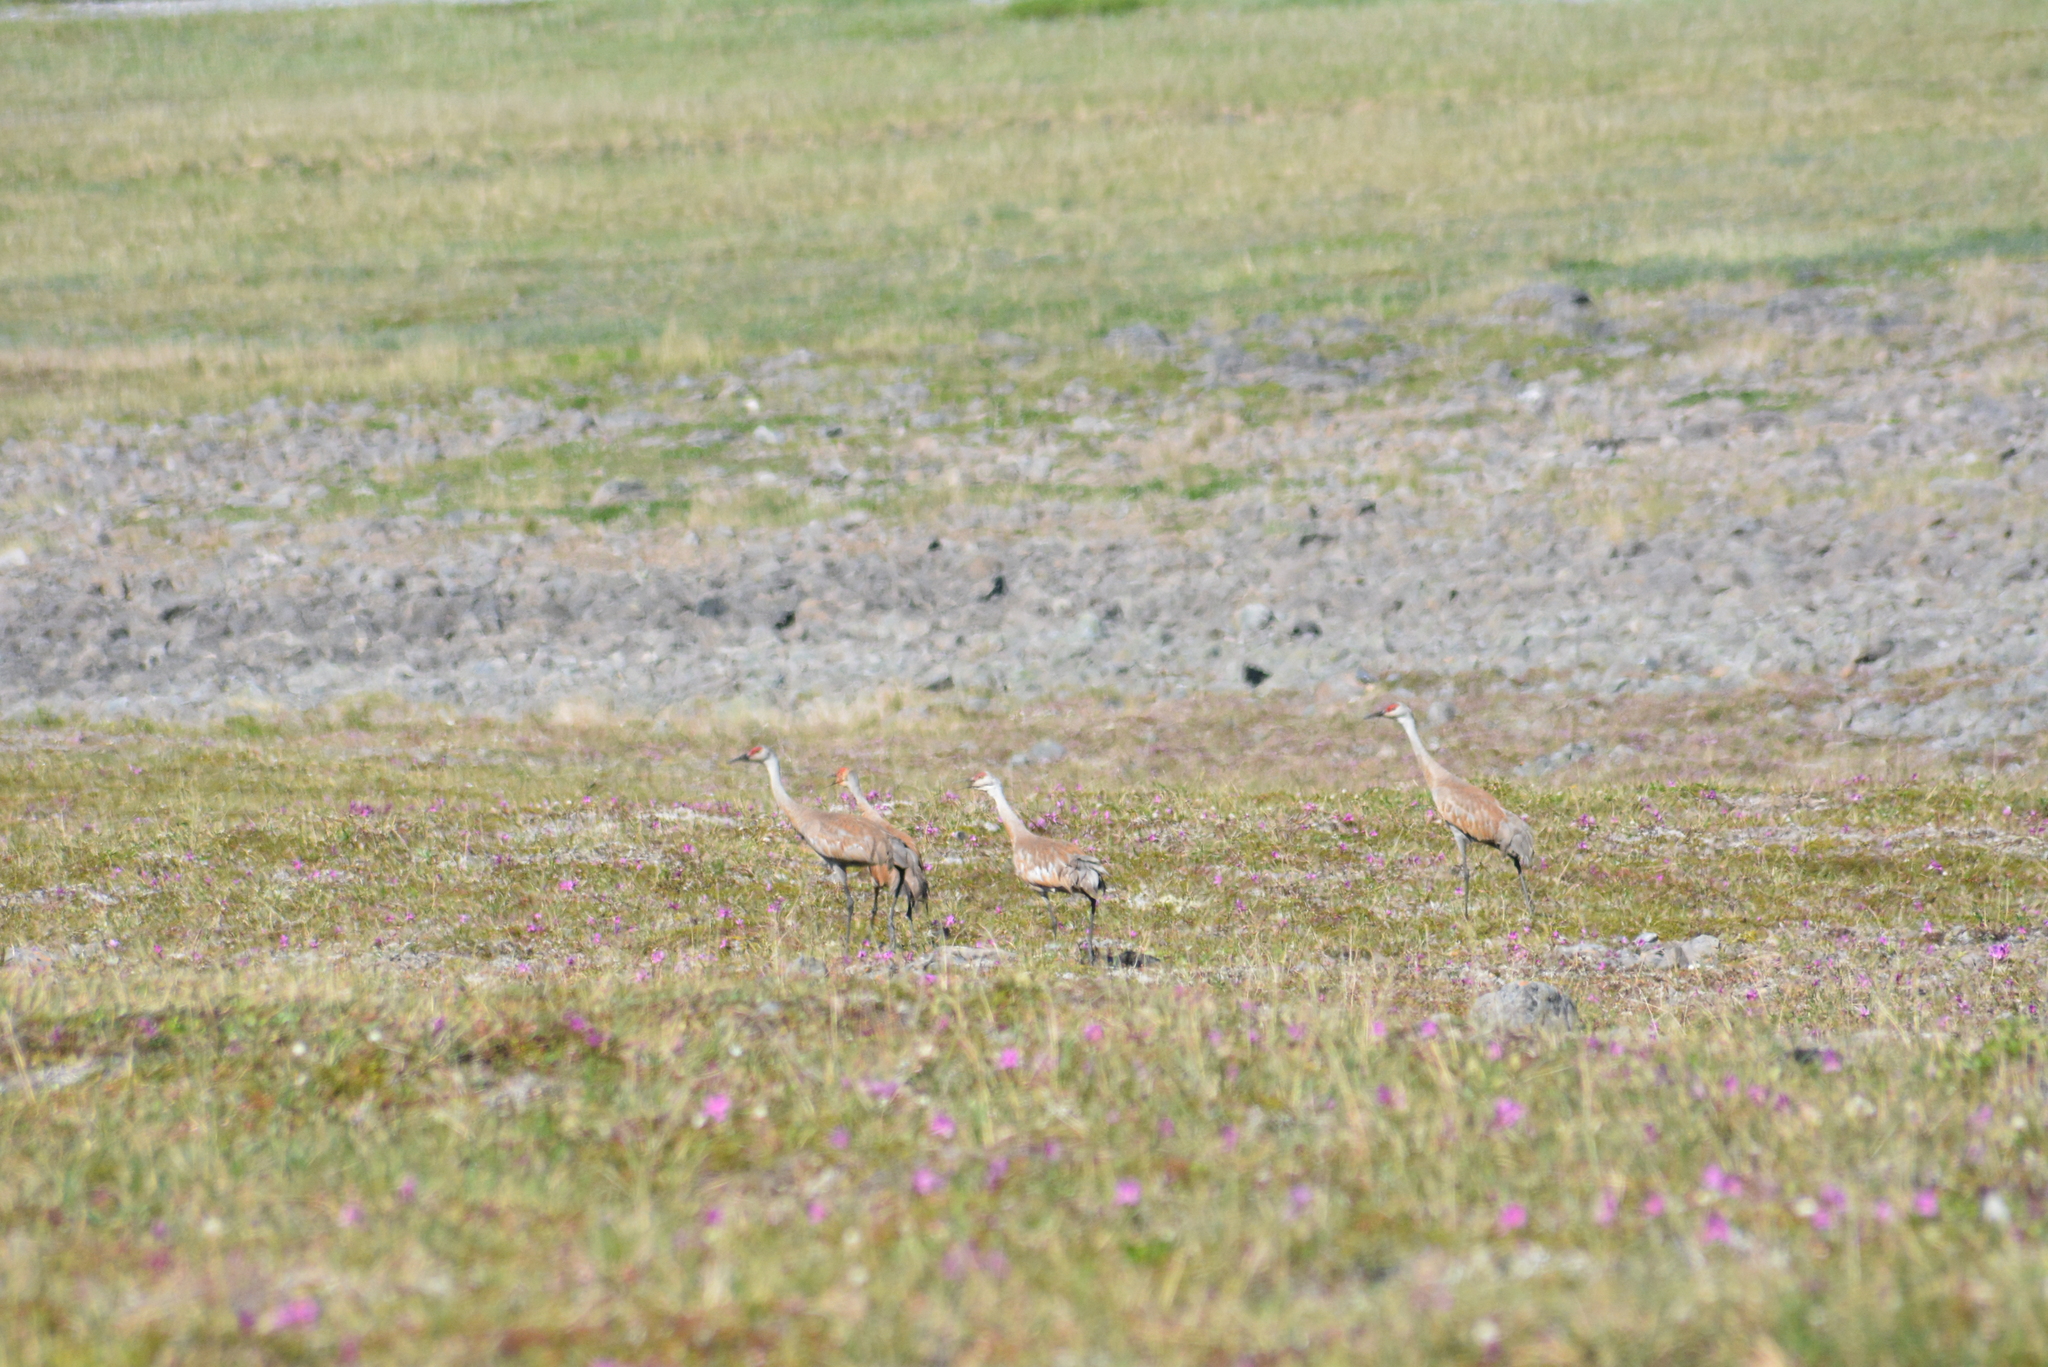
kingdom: Animalia
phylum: Chordata
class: Aves
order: Gruiformes
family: Gruidae
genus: Grus
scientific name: Grus canadensis
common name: Sandhill crane
